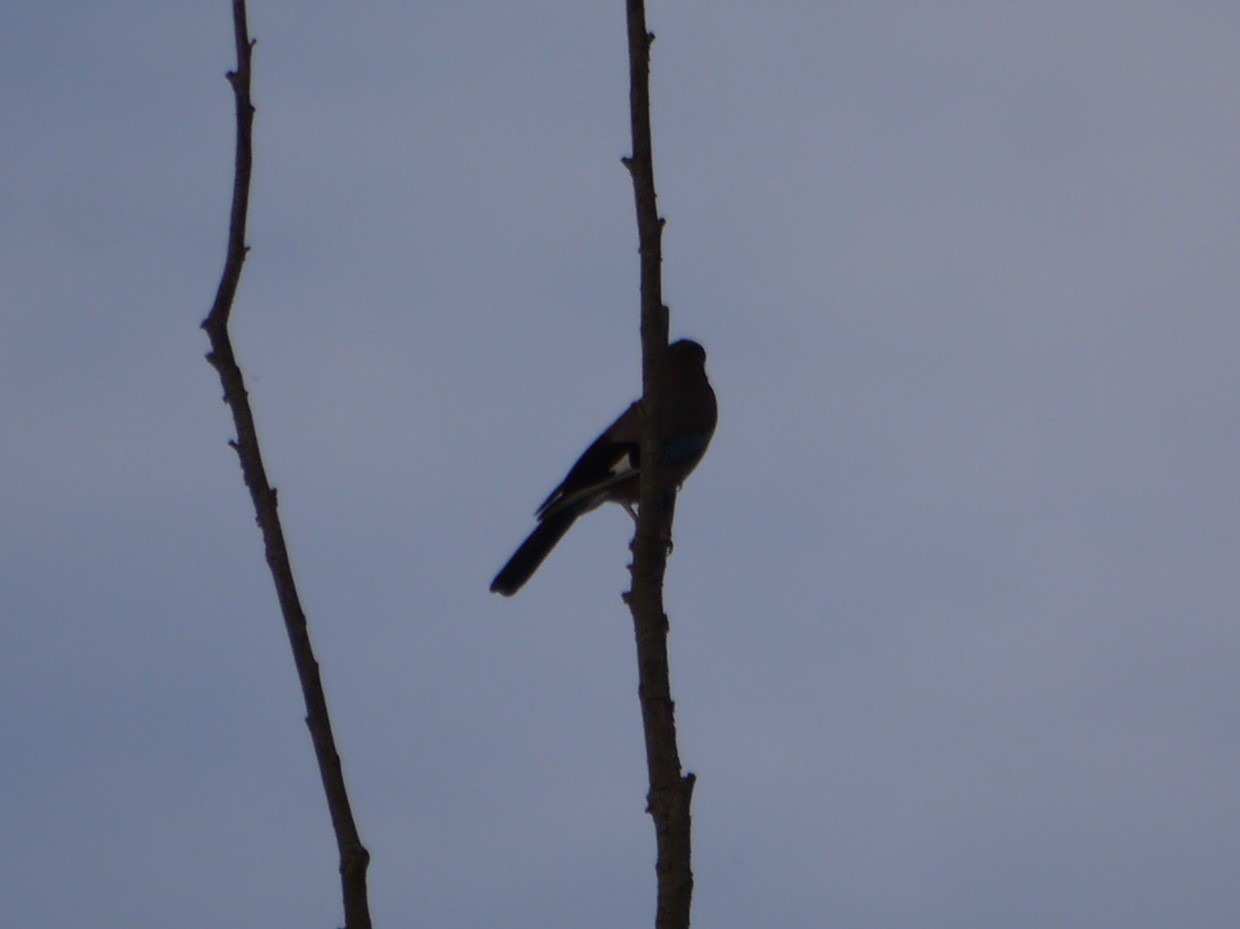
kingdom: Animalia
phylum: Chordata
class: Aves
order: Passeriformes
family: Corvidae
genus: Garrulus
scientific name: Garrulus glandarius
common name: Eurasian jay
